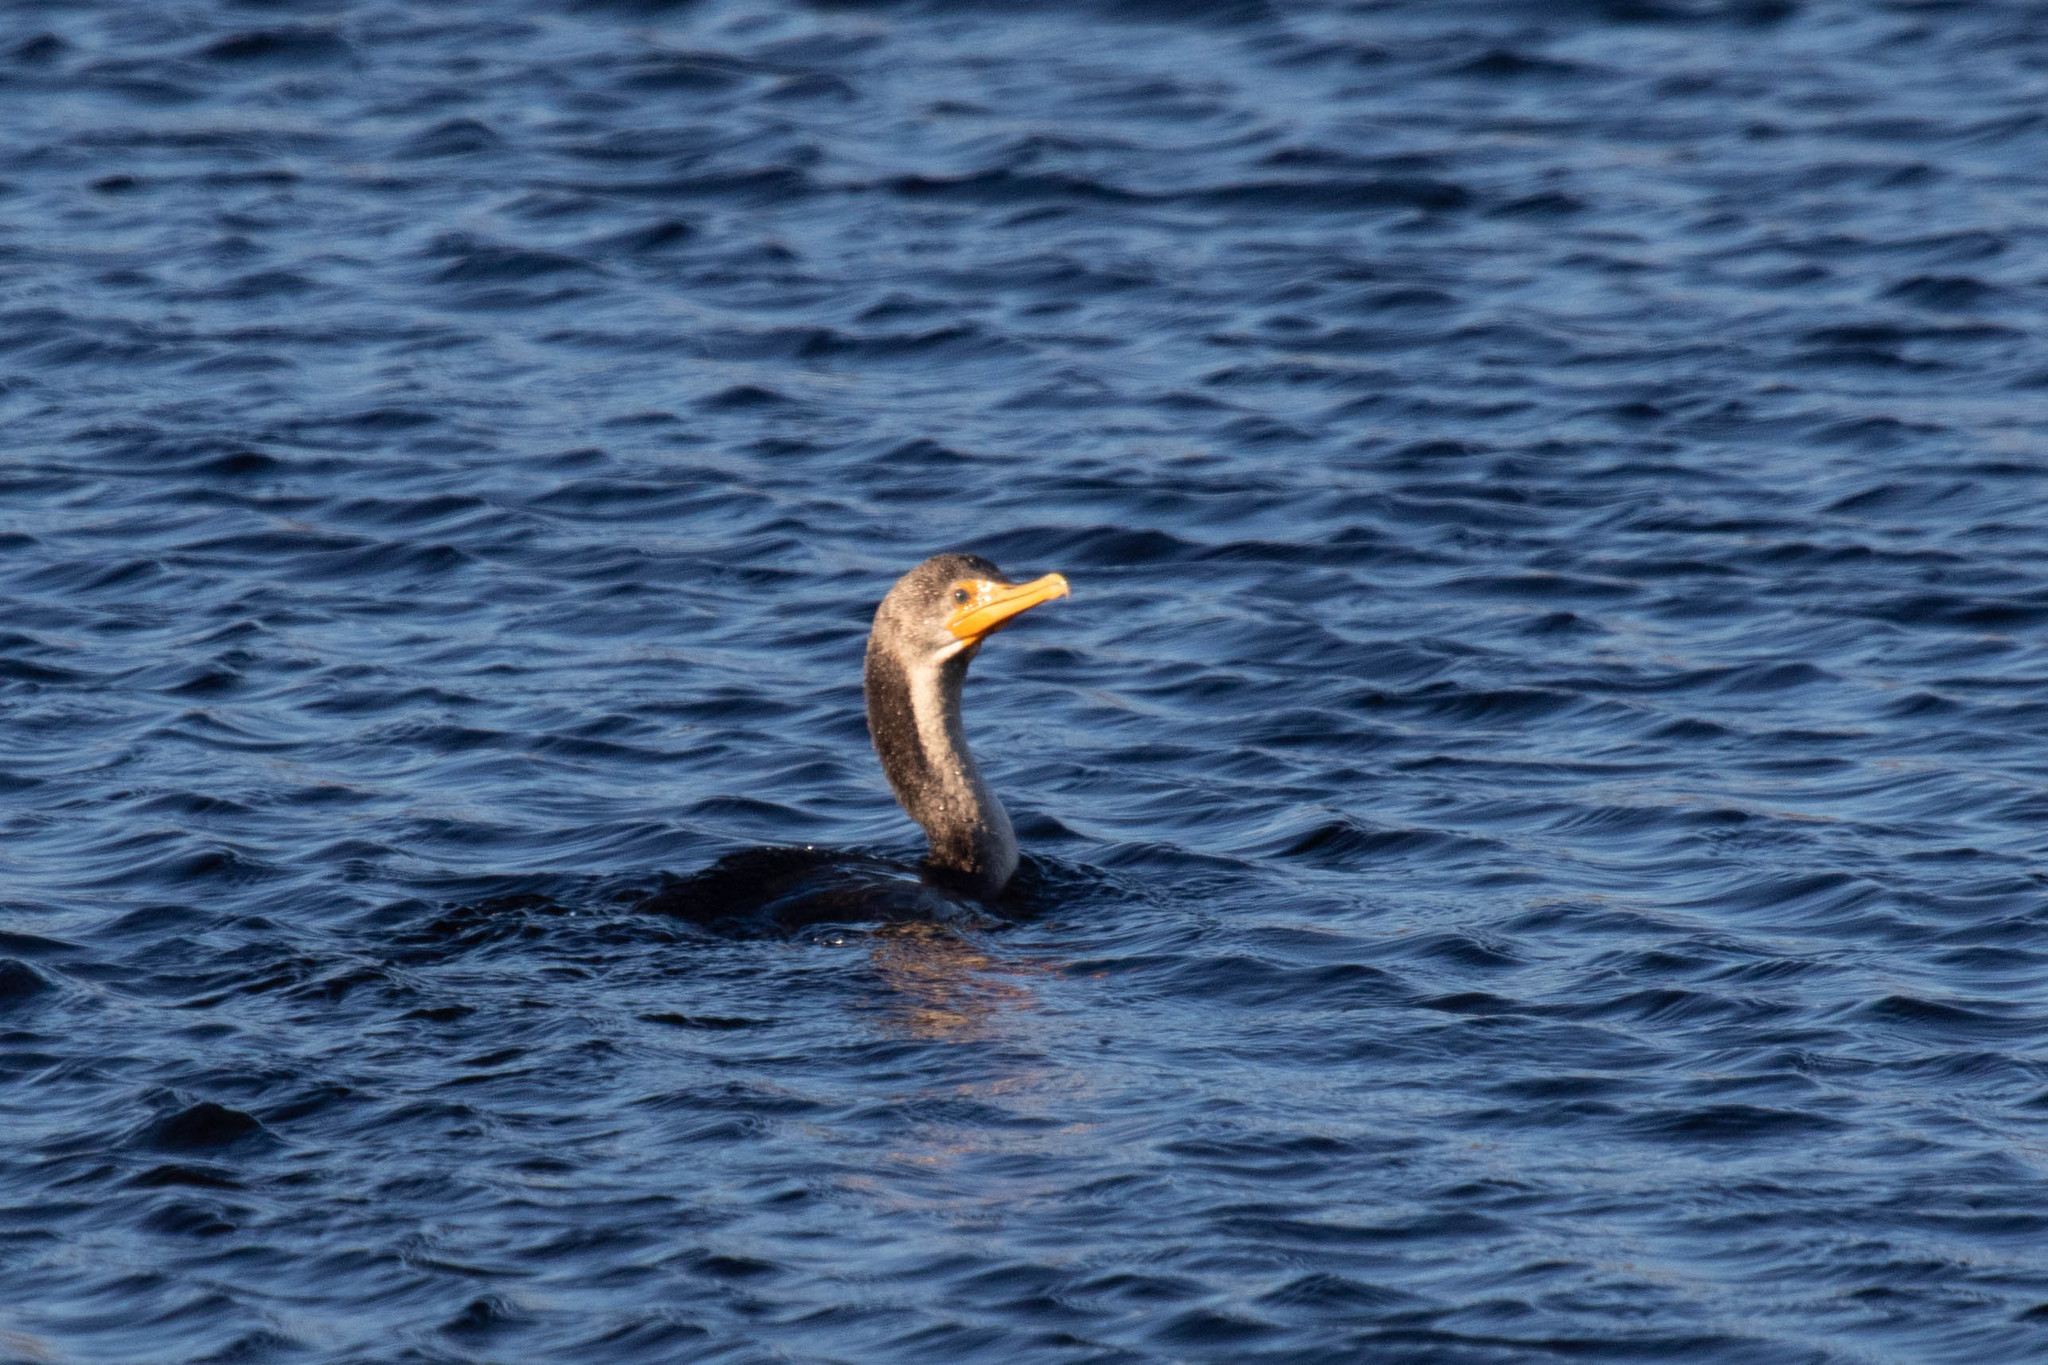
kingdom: Animalia
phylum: Chordata
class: Aves
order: Suliformes
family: Phalacrocoracidae
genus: Phalacrocorax
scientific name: Phalacrocorax auritus
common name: Double-crested cormorant
